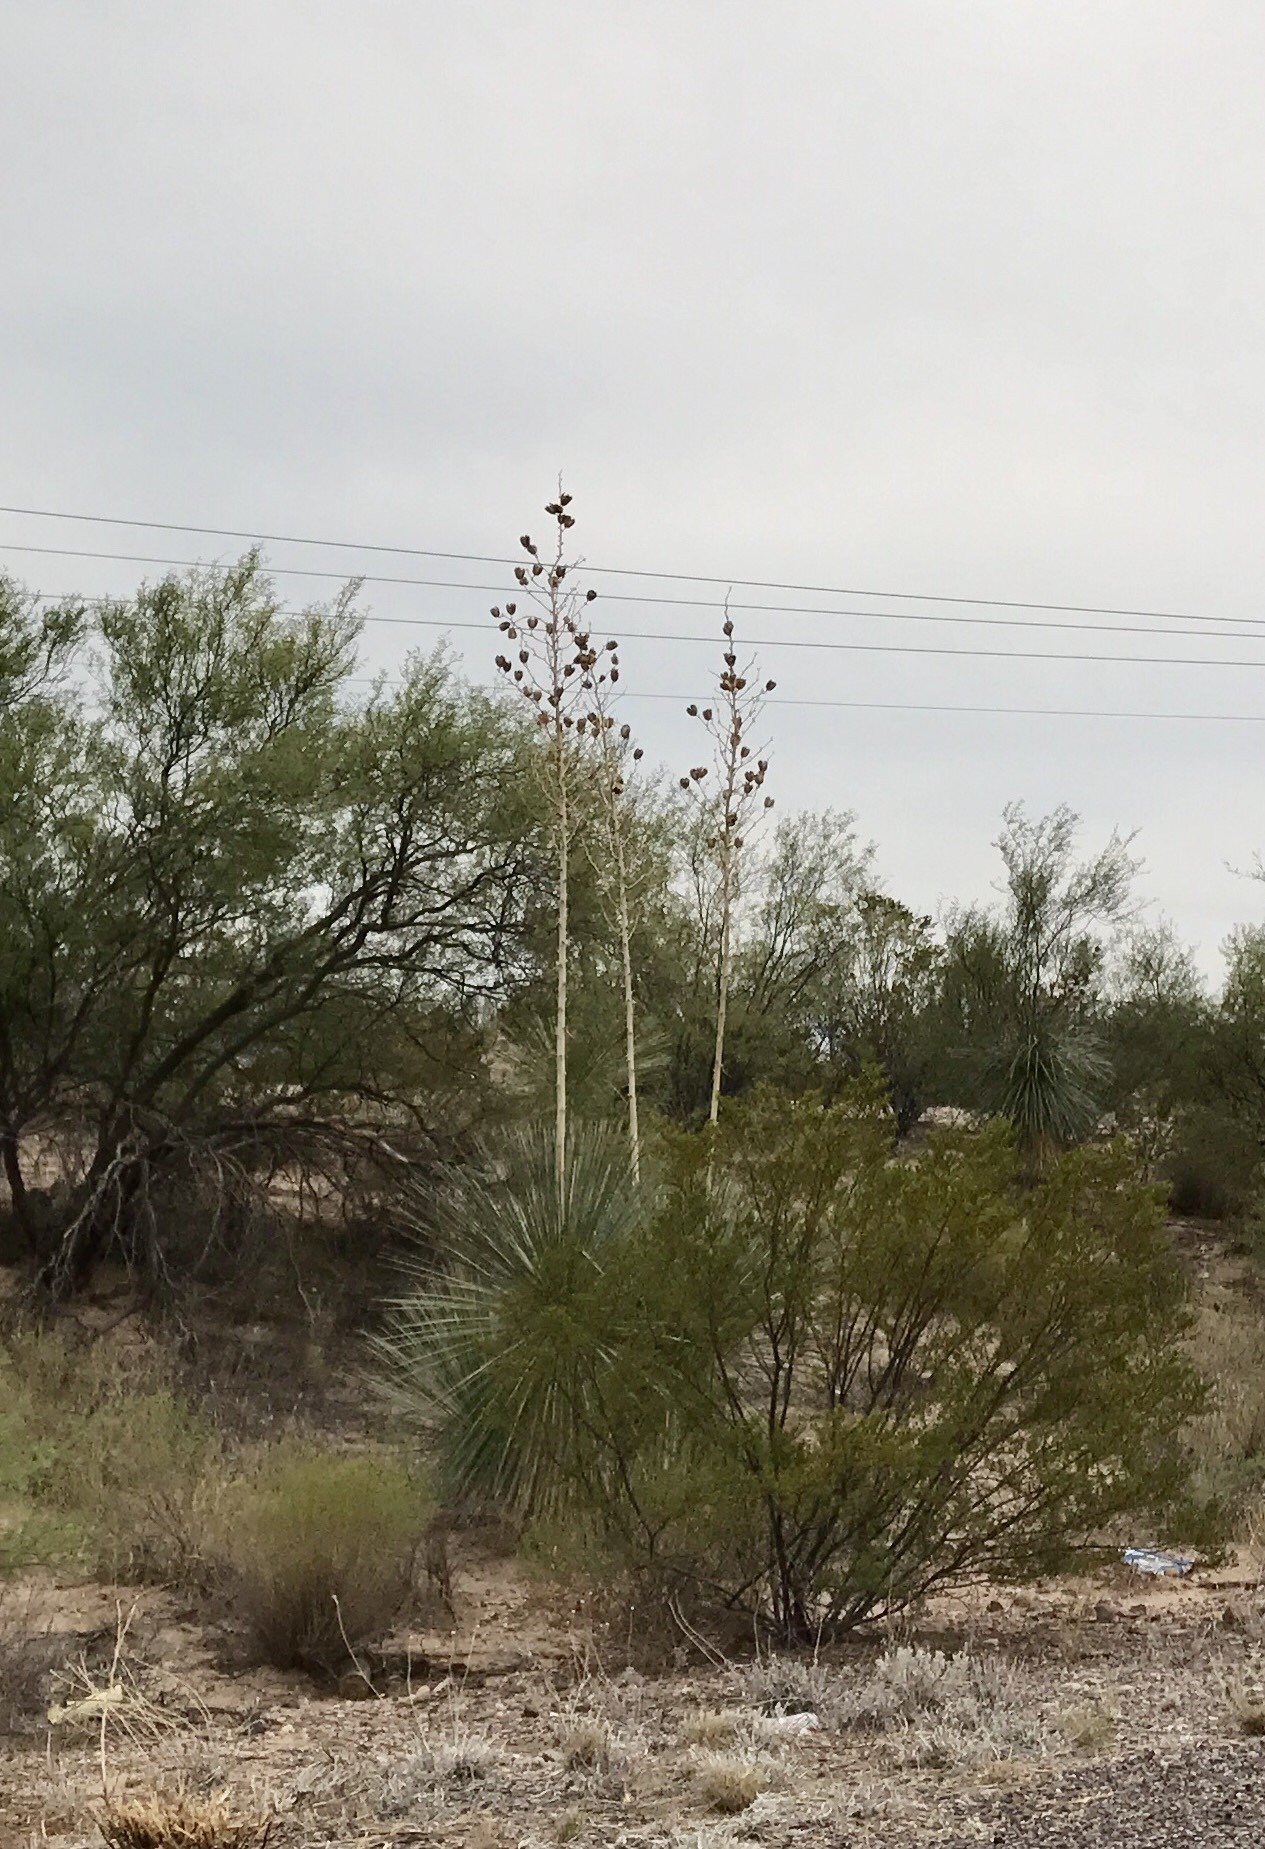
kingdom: Plantae
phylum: Tracheophyta
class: Liliopsida
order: Asparagales
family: Asparagaceae
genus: Yucca
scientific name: Yucca elata
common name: Palmella
